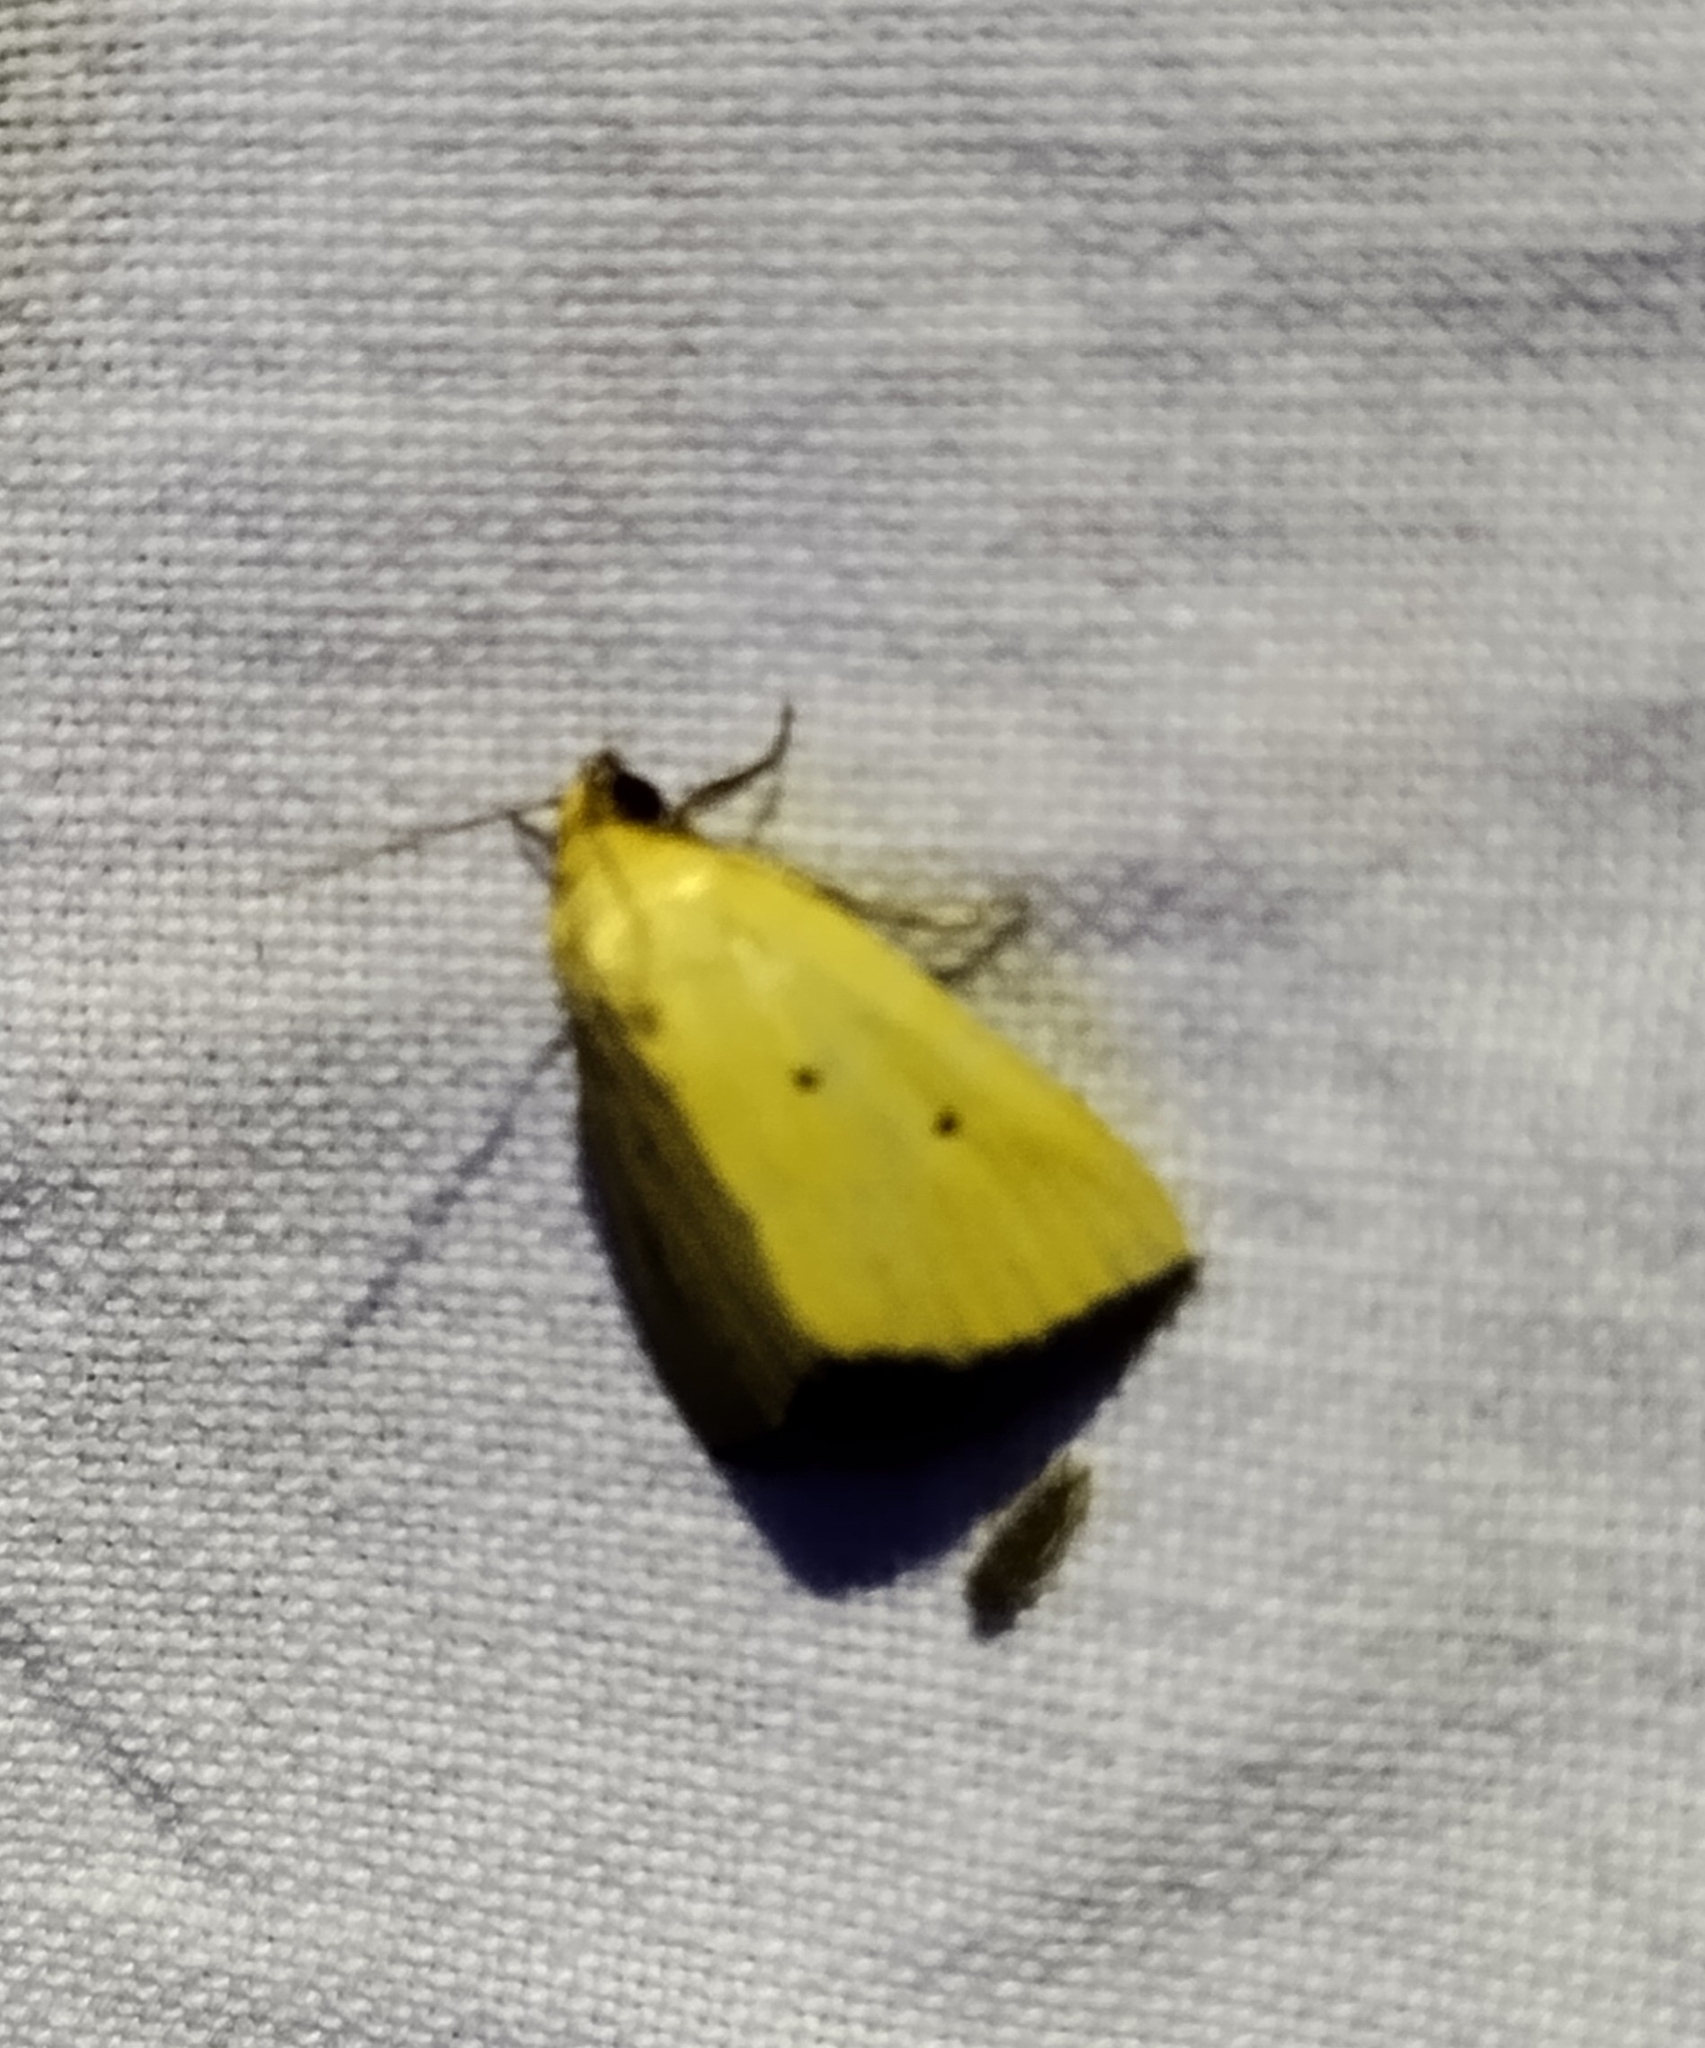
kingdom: Animalia
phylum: Arthropoda
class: Insecta
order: Lepidoptera
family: Noctuidae
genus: Marimatha
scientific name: Marimatha nigrofimbria
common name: Black-bordered lemon moth
